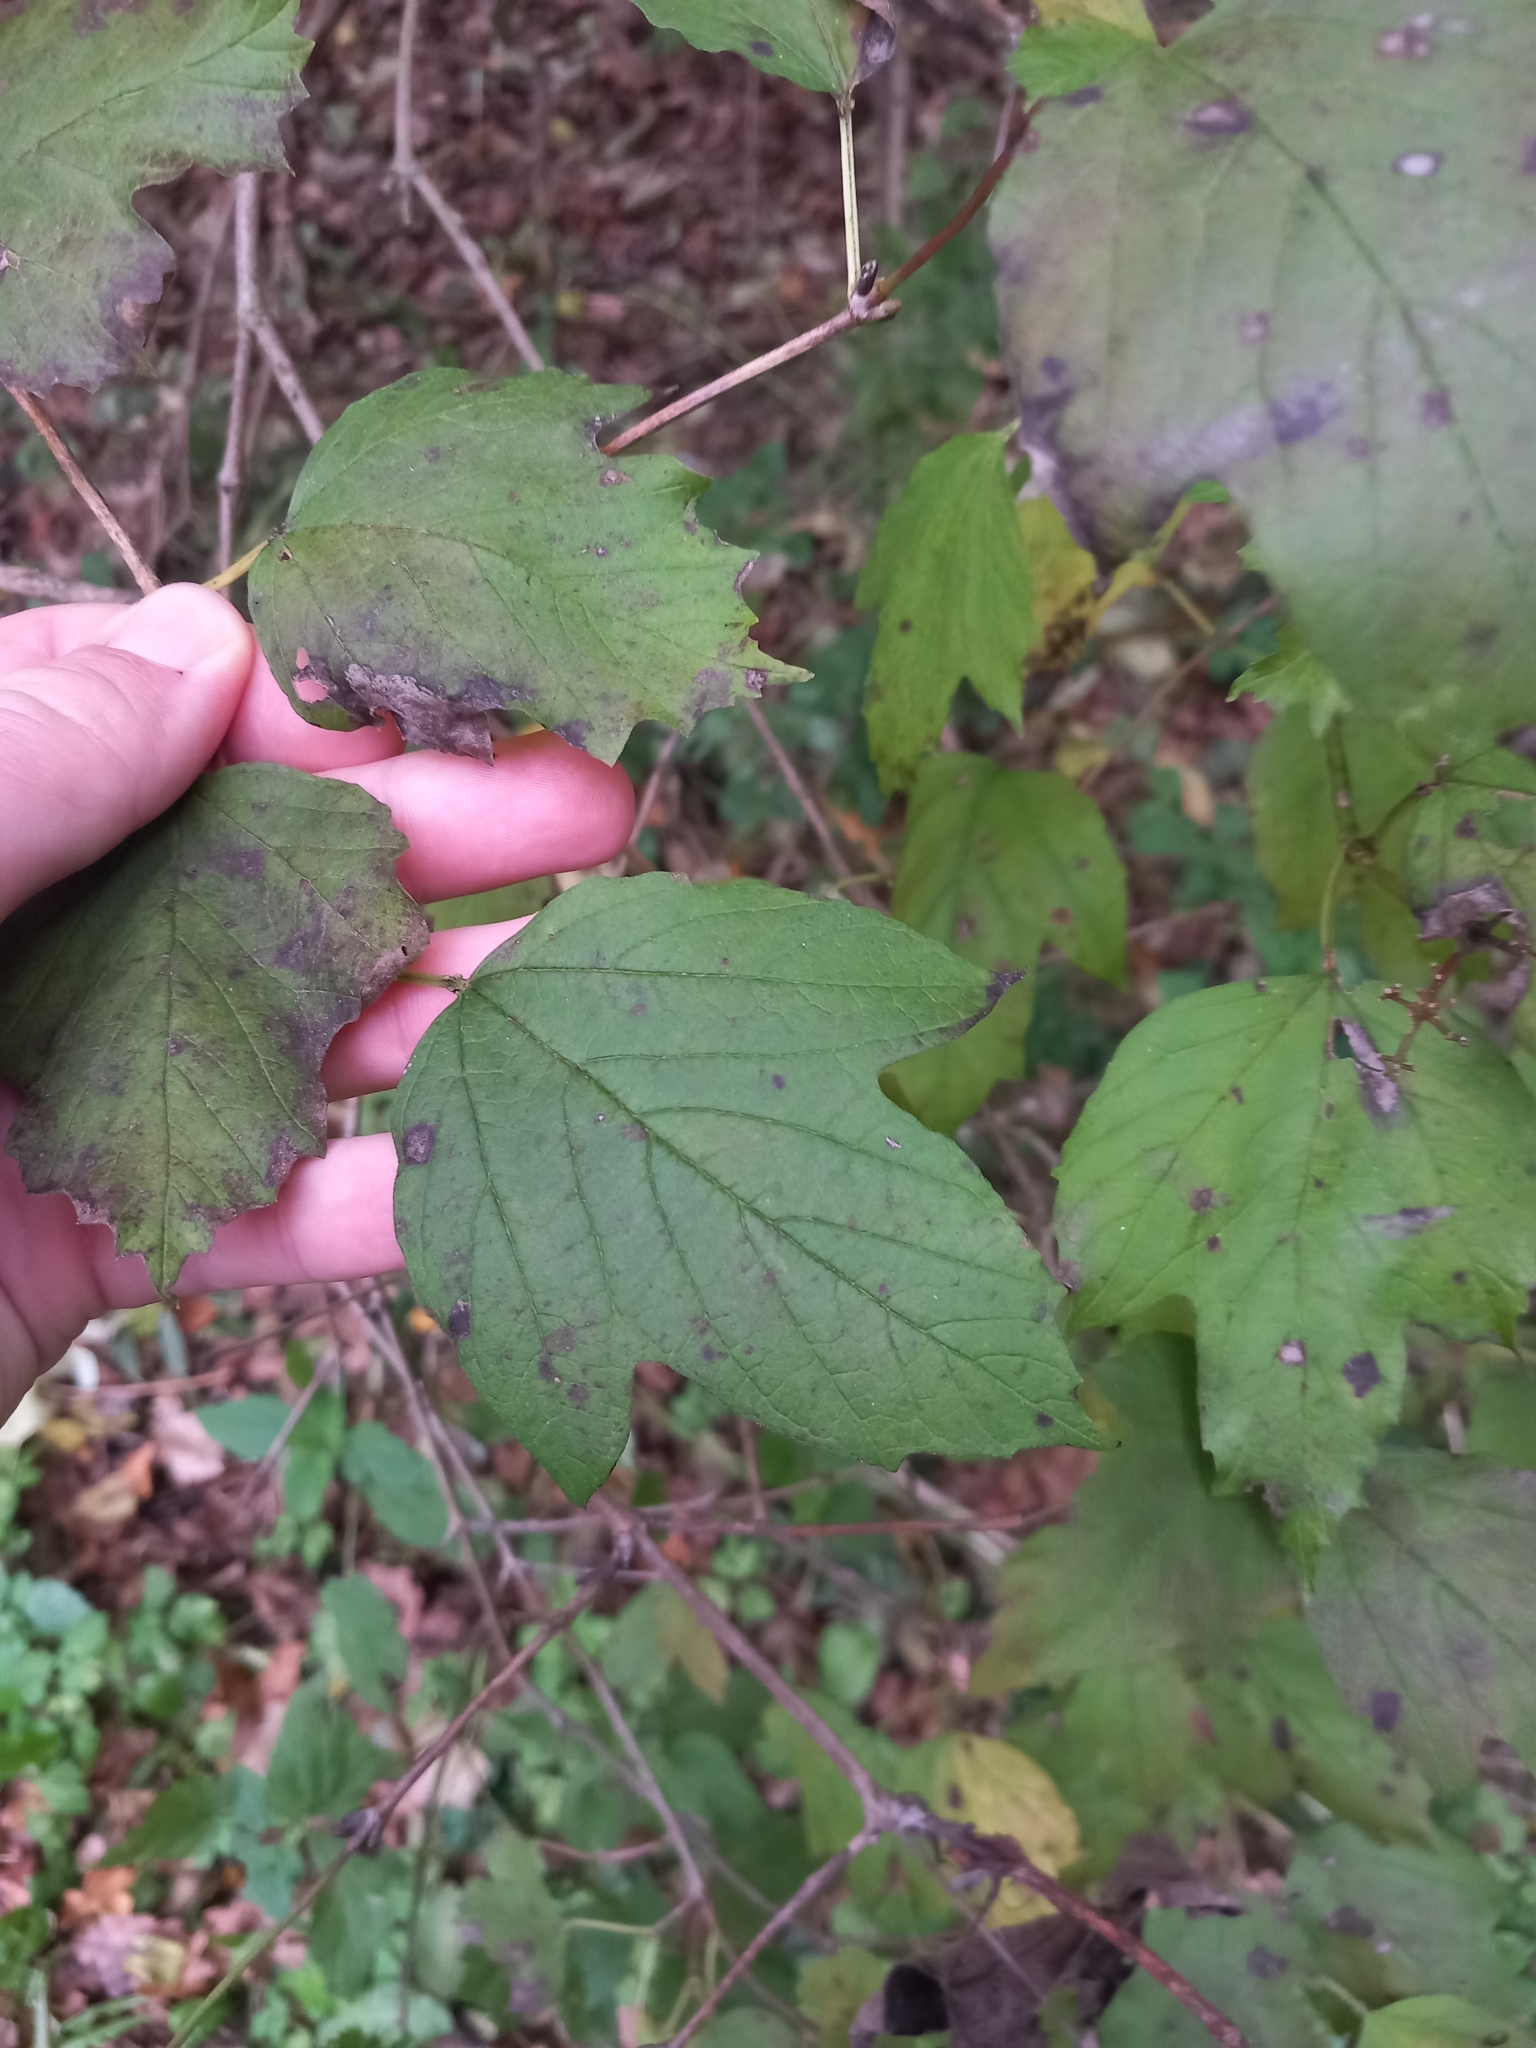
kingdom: Plantae
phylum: Tracheophyta
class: Magnoliopsida
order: Dipsacales
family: Viburnaceae
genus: Viburnum
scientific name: Viburnum opulus
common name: Guelder-rose
